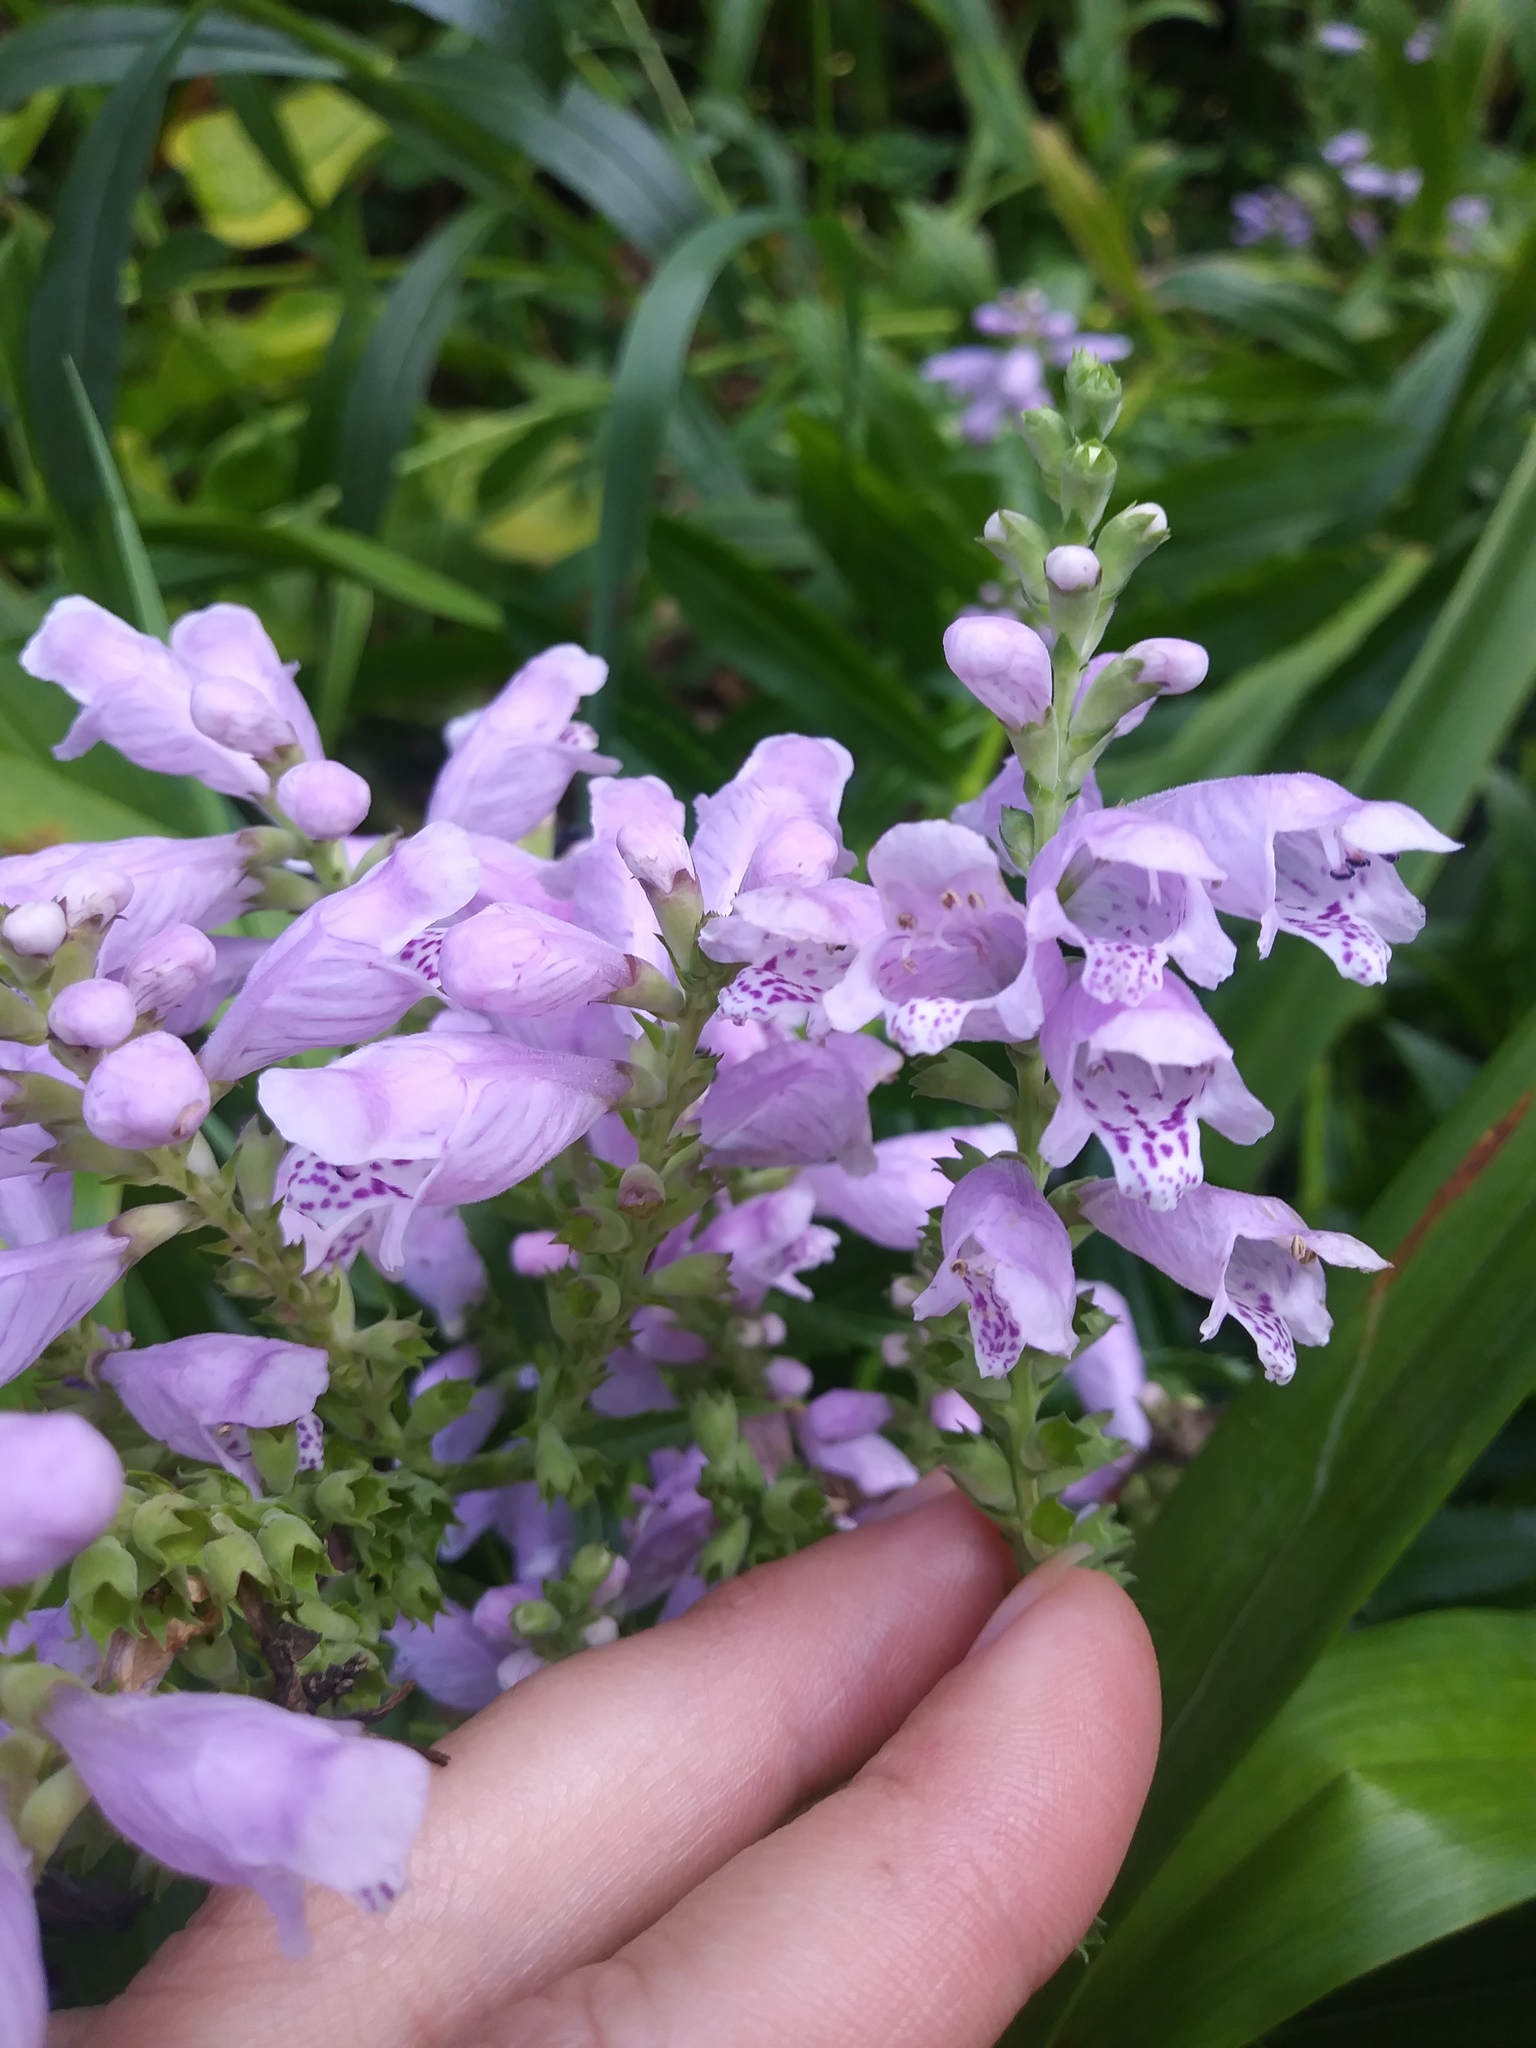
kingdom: Plantae
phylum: Tracheophyta
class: Magnoliopsida
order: Lamiales
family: Lamiaceae
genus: Physostegia
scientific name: Physostegia virginiana
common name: Obedient-plant
